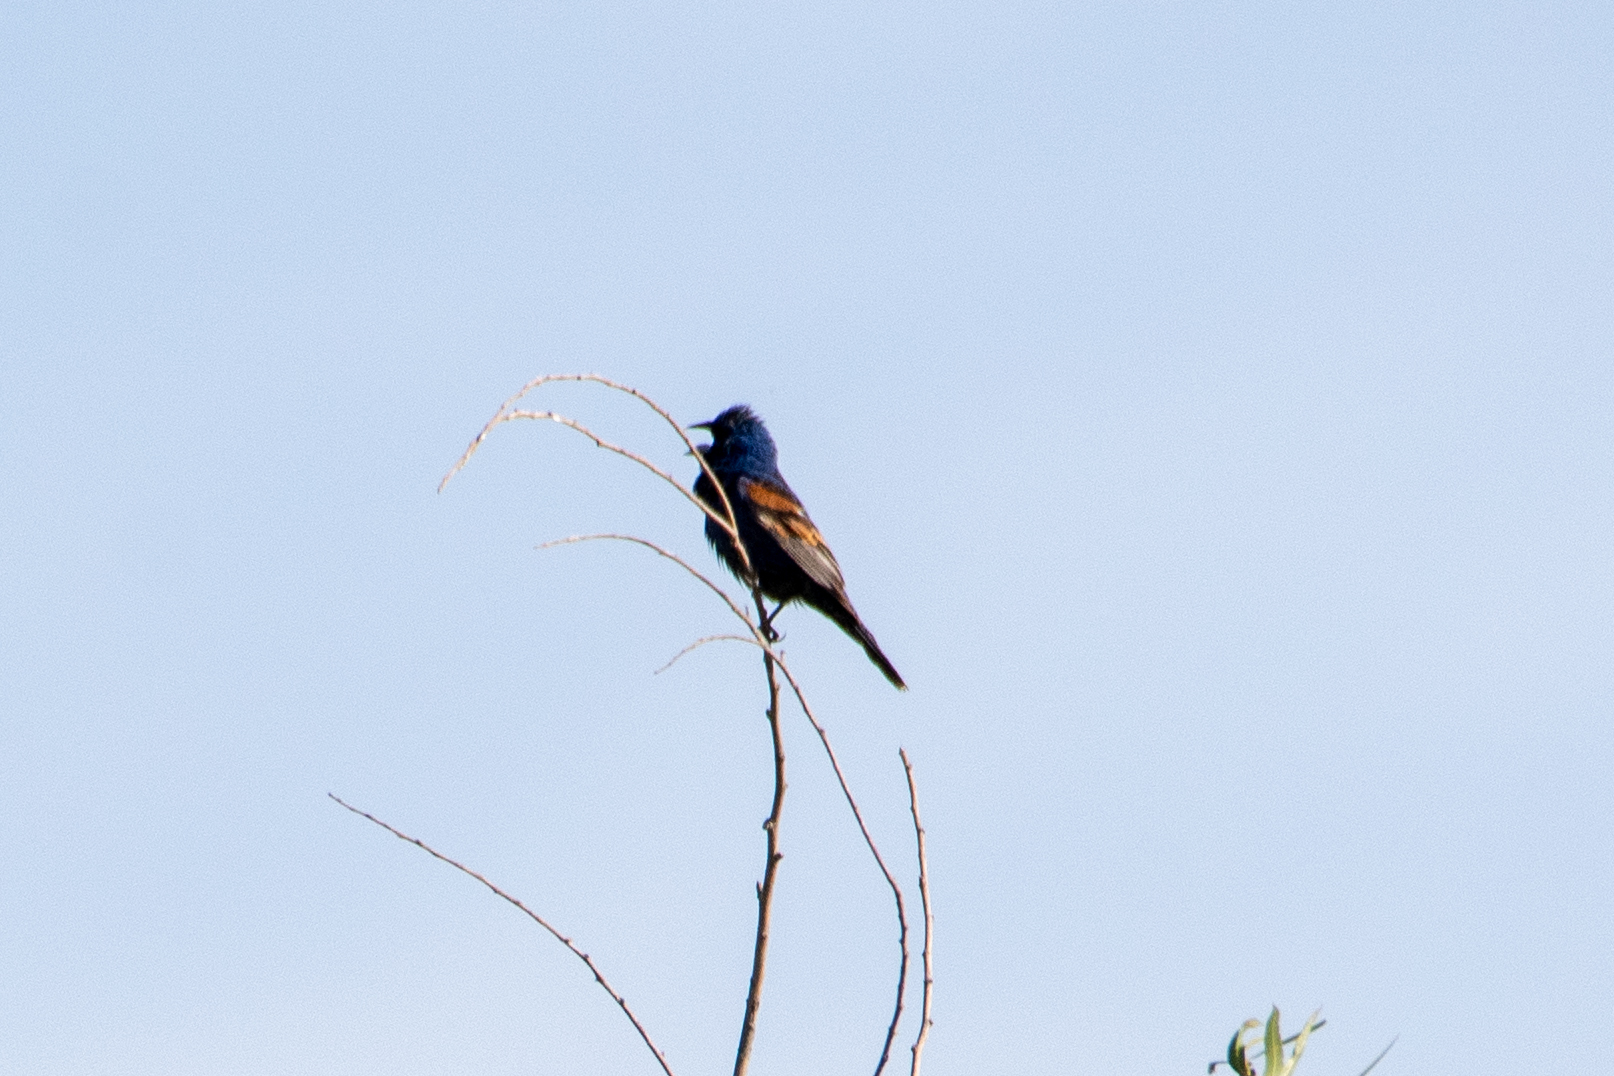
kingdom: Animalia
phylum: Chordata
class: Aves
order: Passeriformes
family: Cardinalidae
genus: Passerina
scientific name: Passerina caerulea
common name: Blue grosbeak
